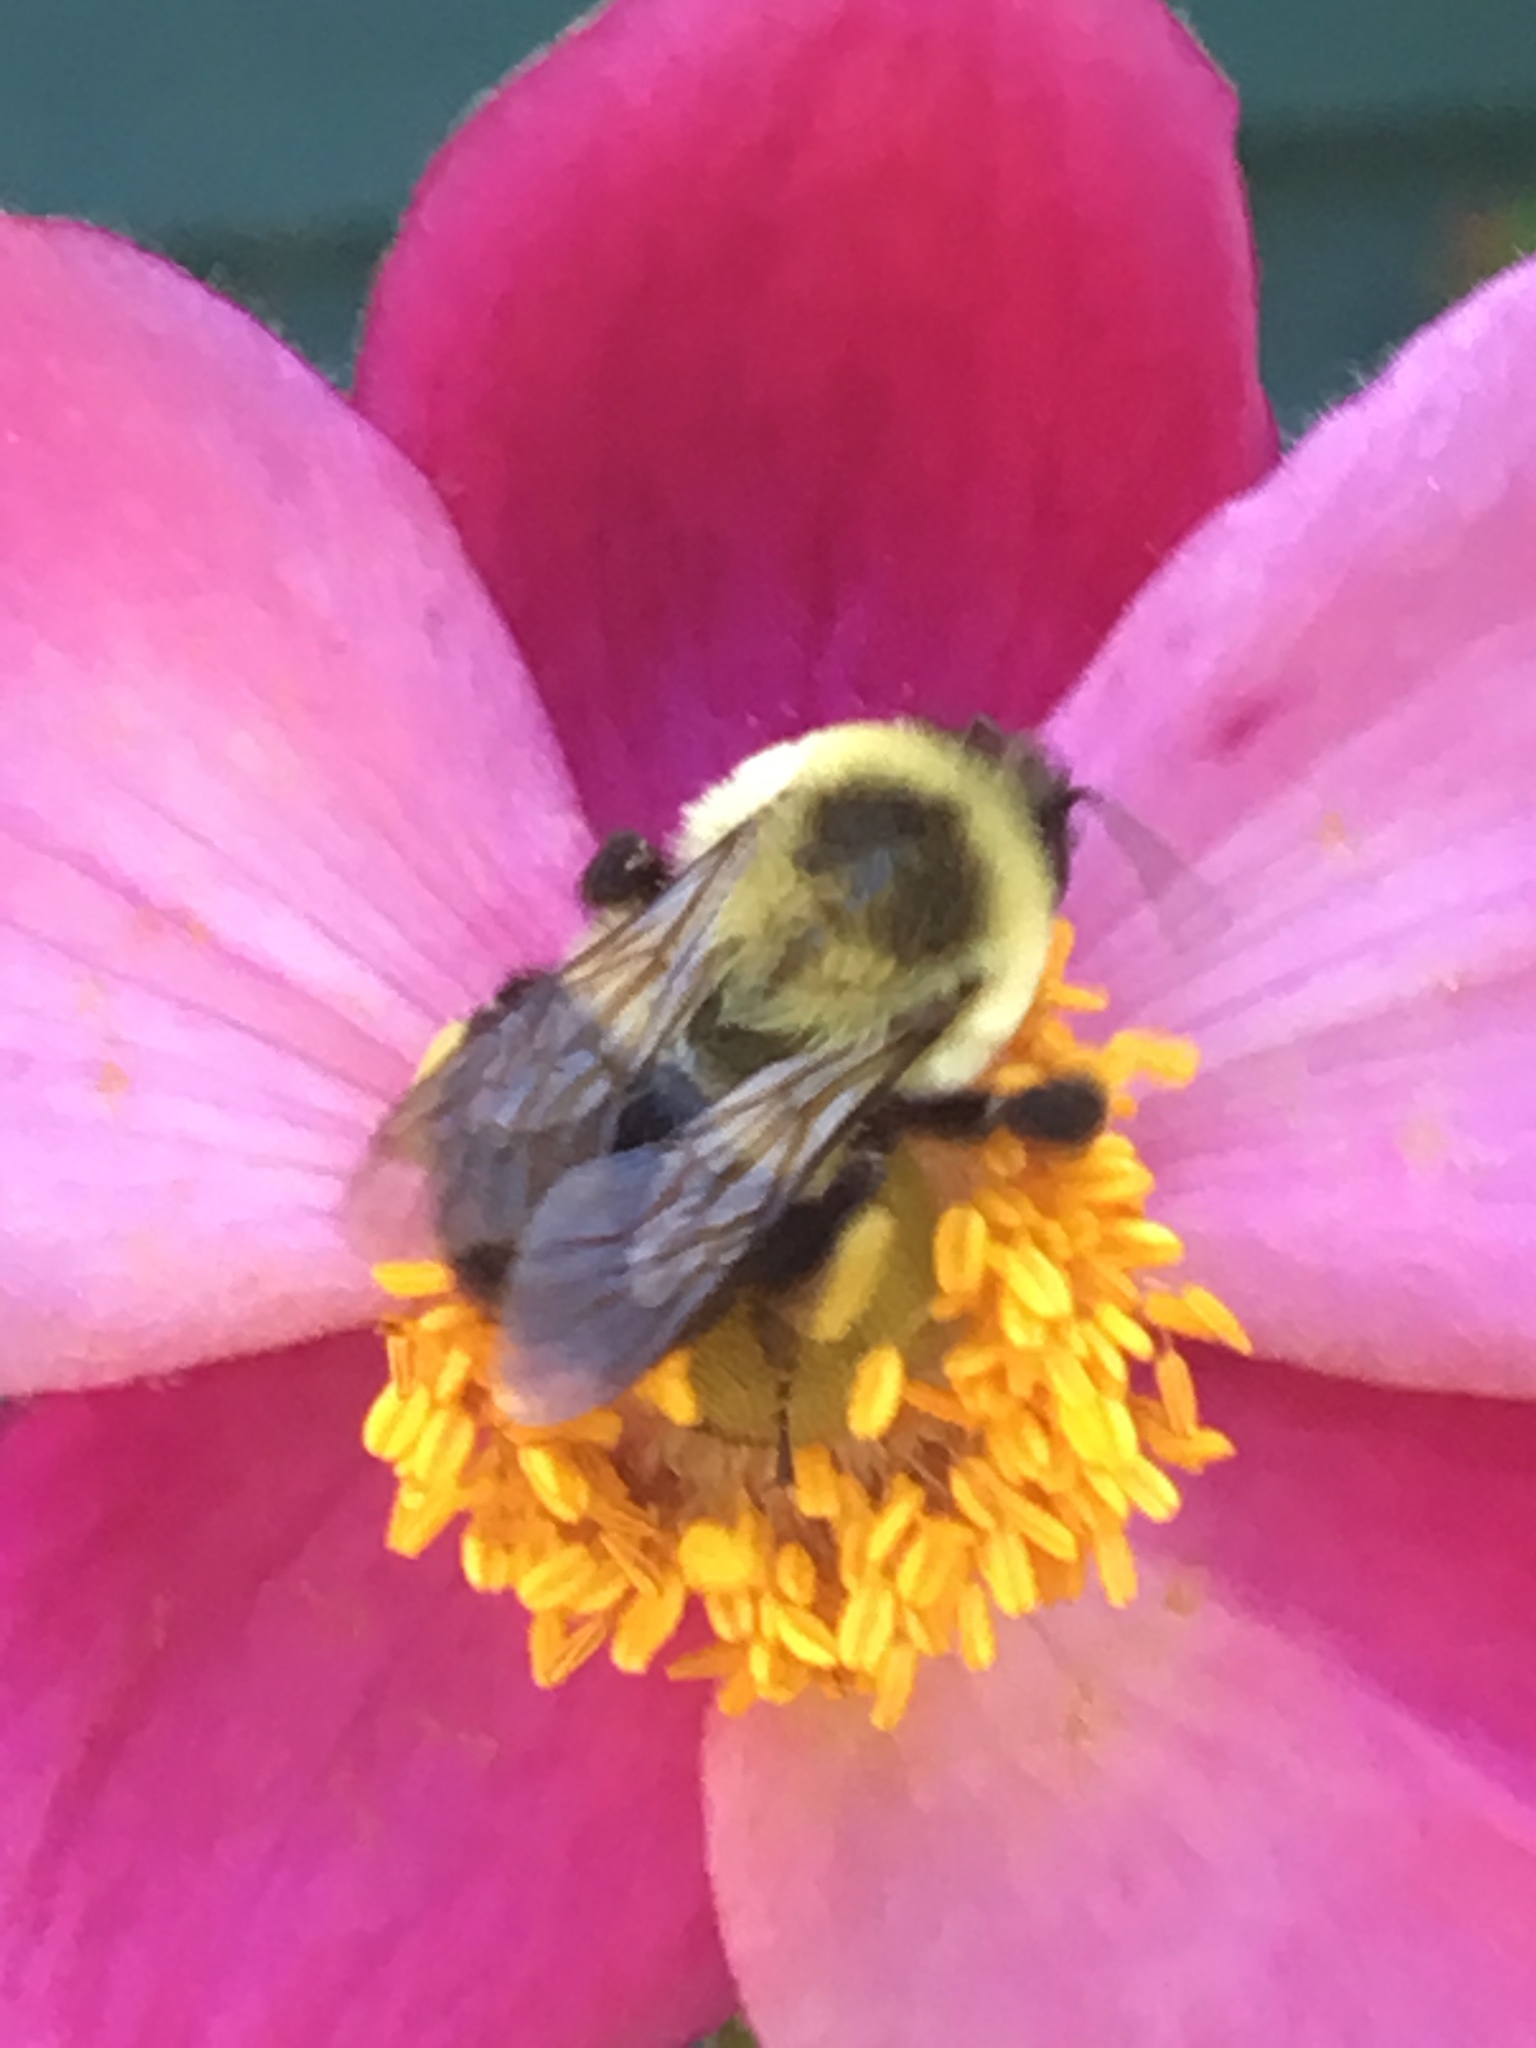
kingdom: Animalia
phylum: Arthropoda
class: Insecta
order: Hymenoptera
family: Apidae
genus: Bombus
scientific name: Bombus impatiens
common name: Common eastern bumble bee
